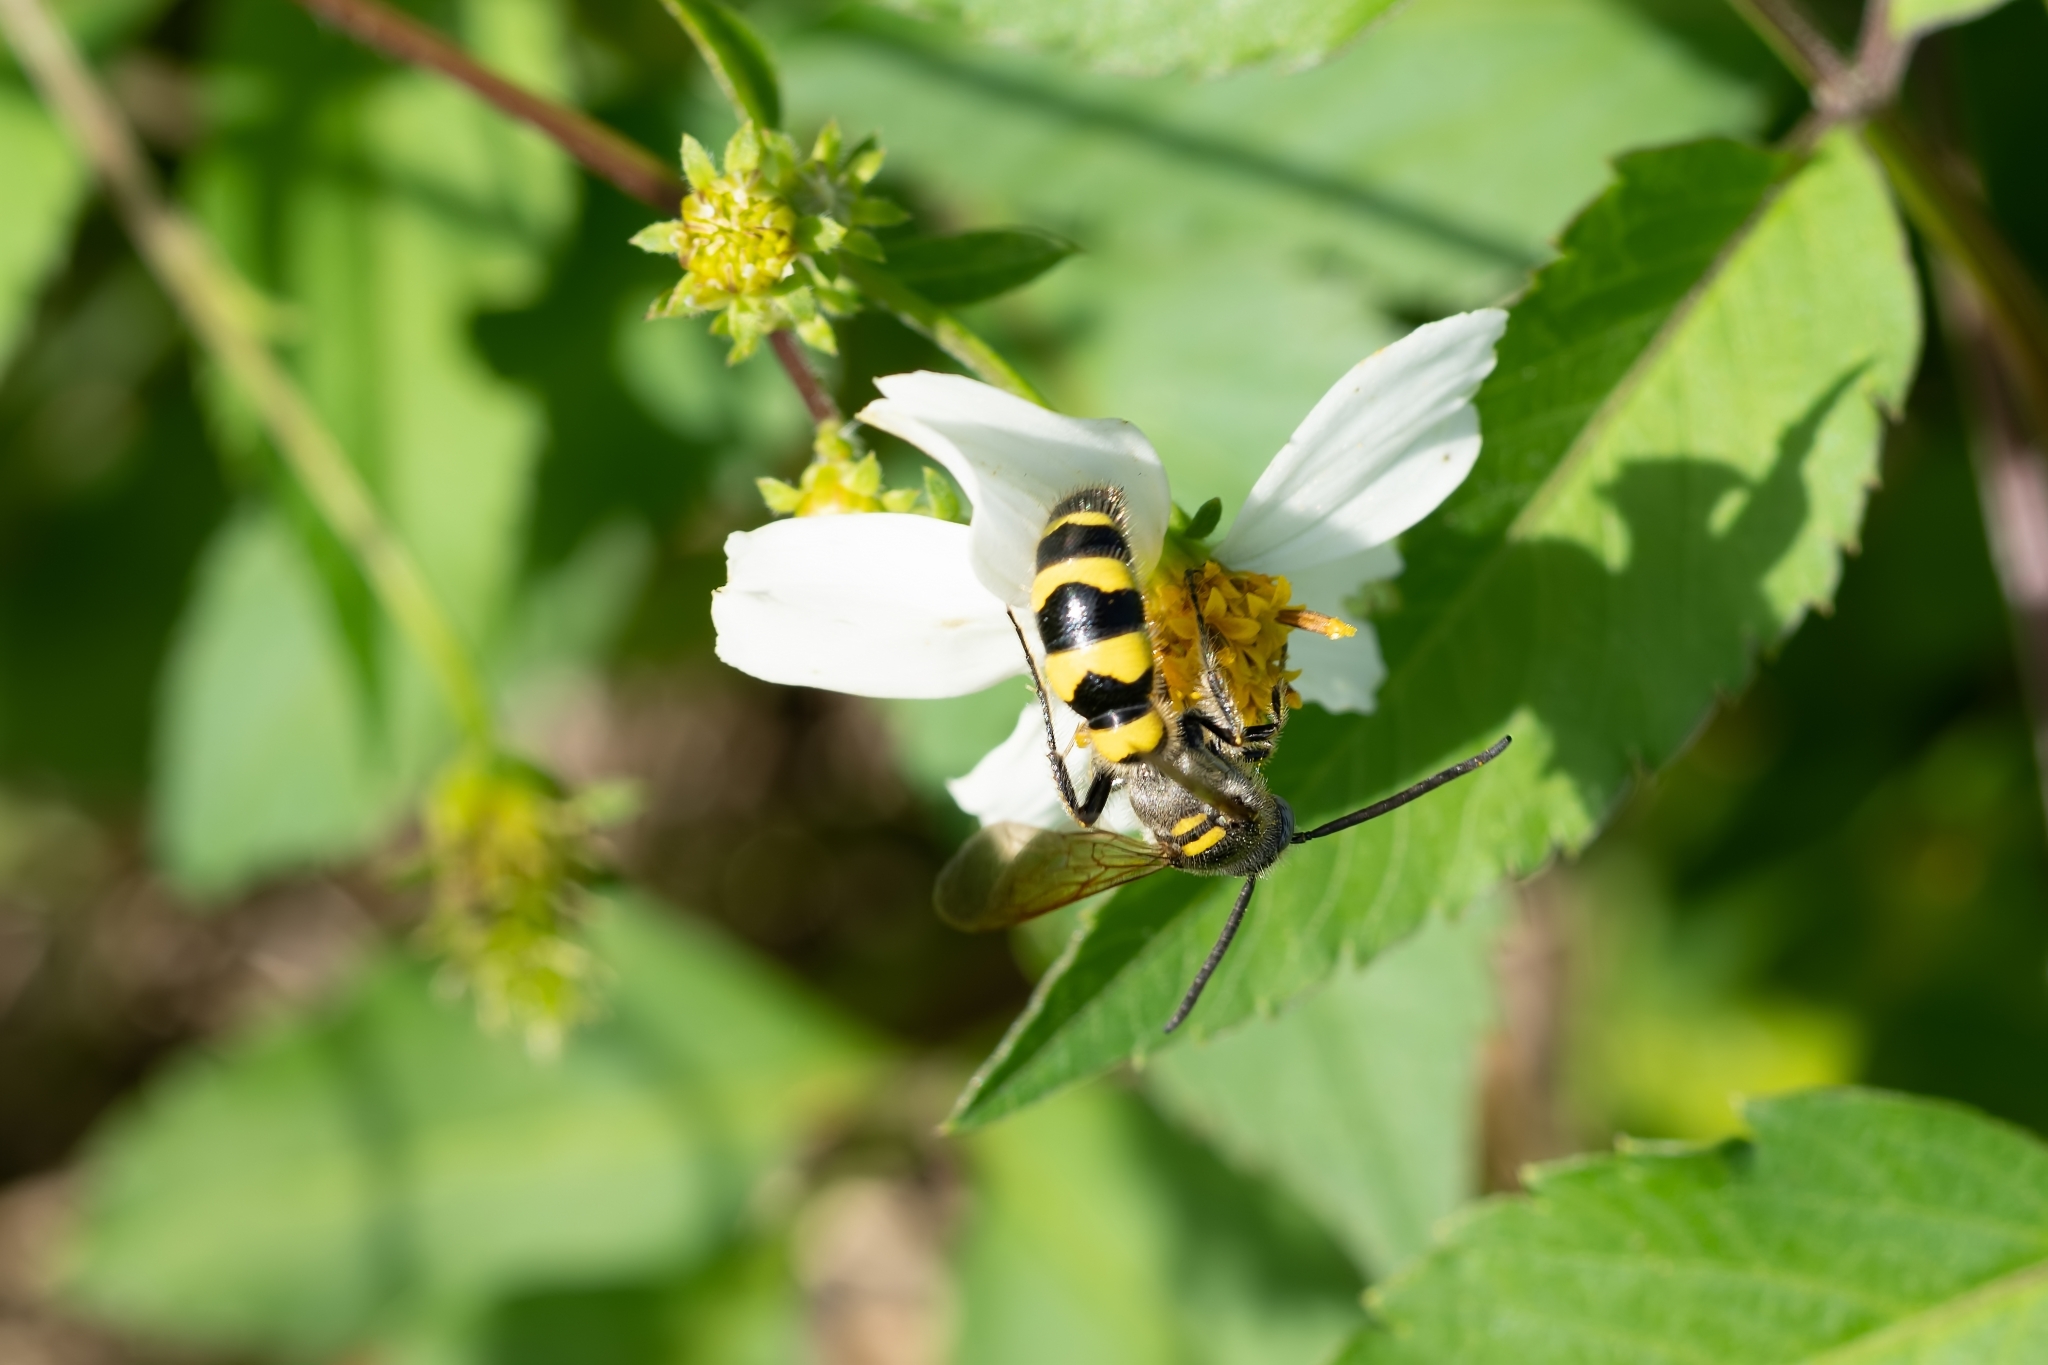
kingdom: Animalia
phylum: Arthropoda
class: Insecta
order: Hymenoptera
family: Scoliidae
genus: Dielis
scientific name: Dielis
